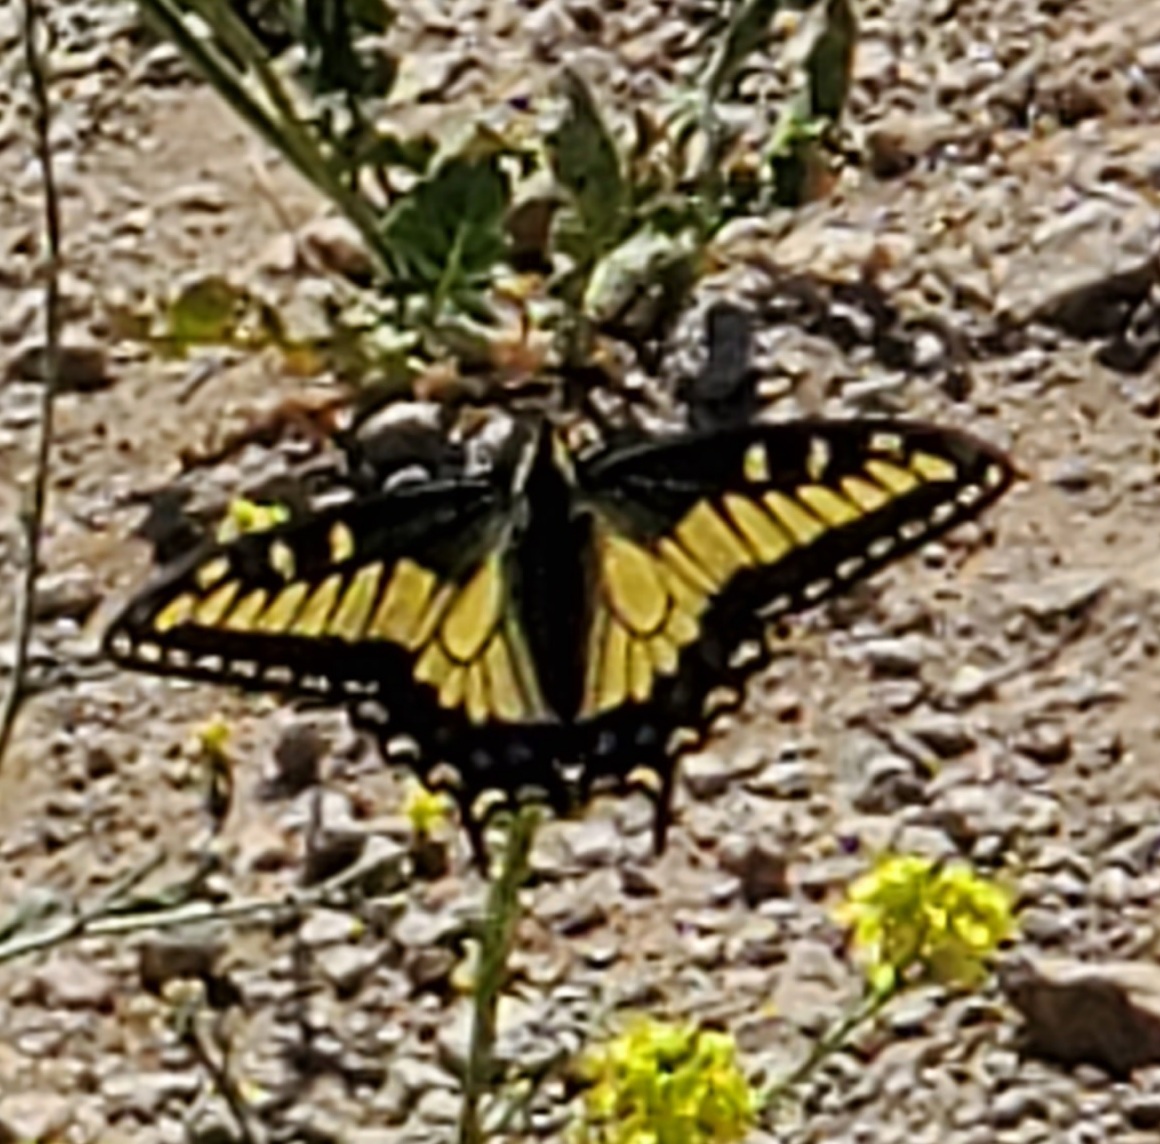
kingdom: Animalia
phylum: Arthropoda
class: Insecta
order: Lepidoptera
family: Papilionidae
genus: Papilio
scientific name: Papilio zelicaon
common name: Anise swallowtail
